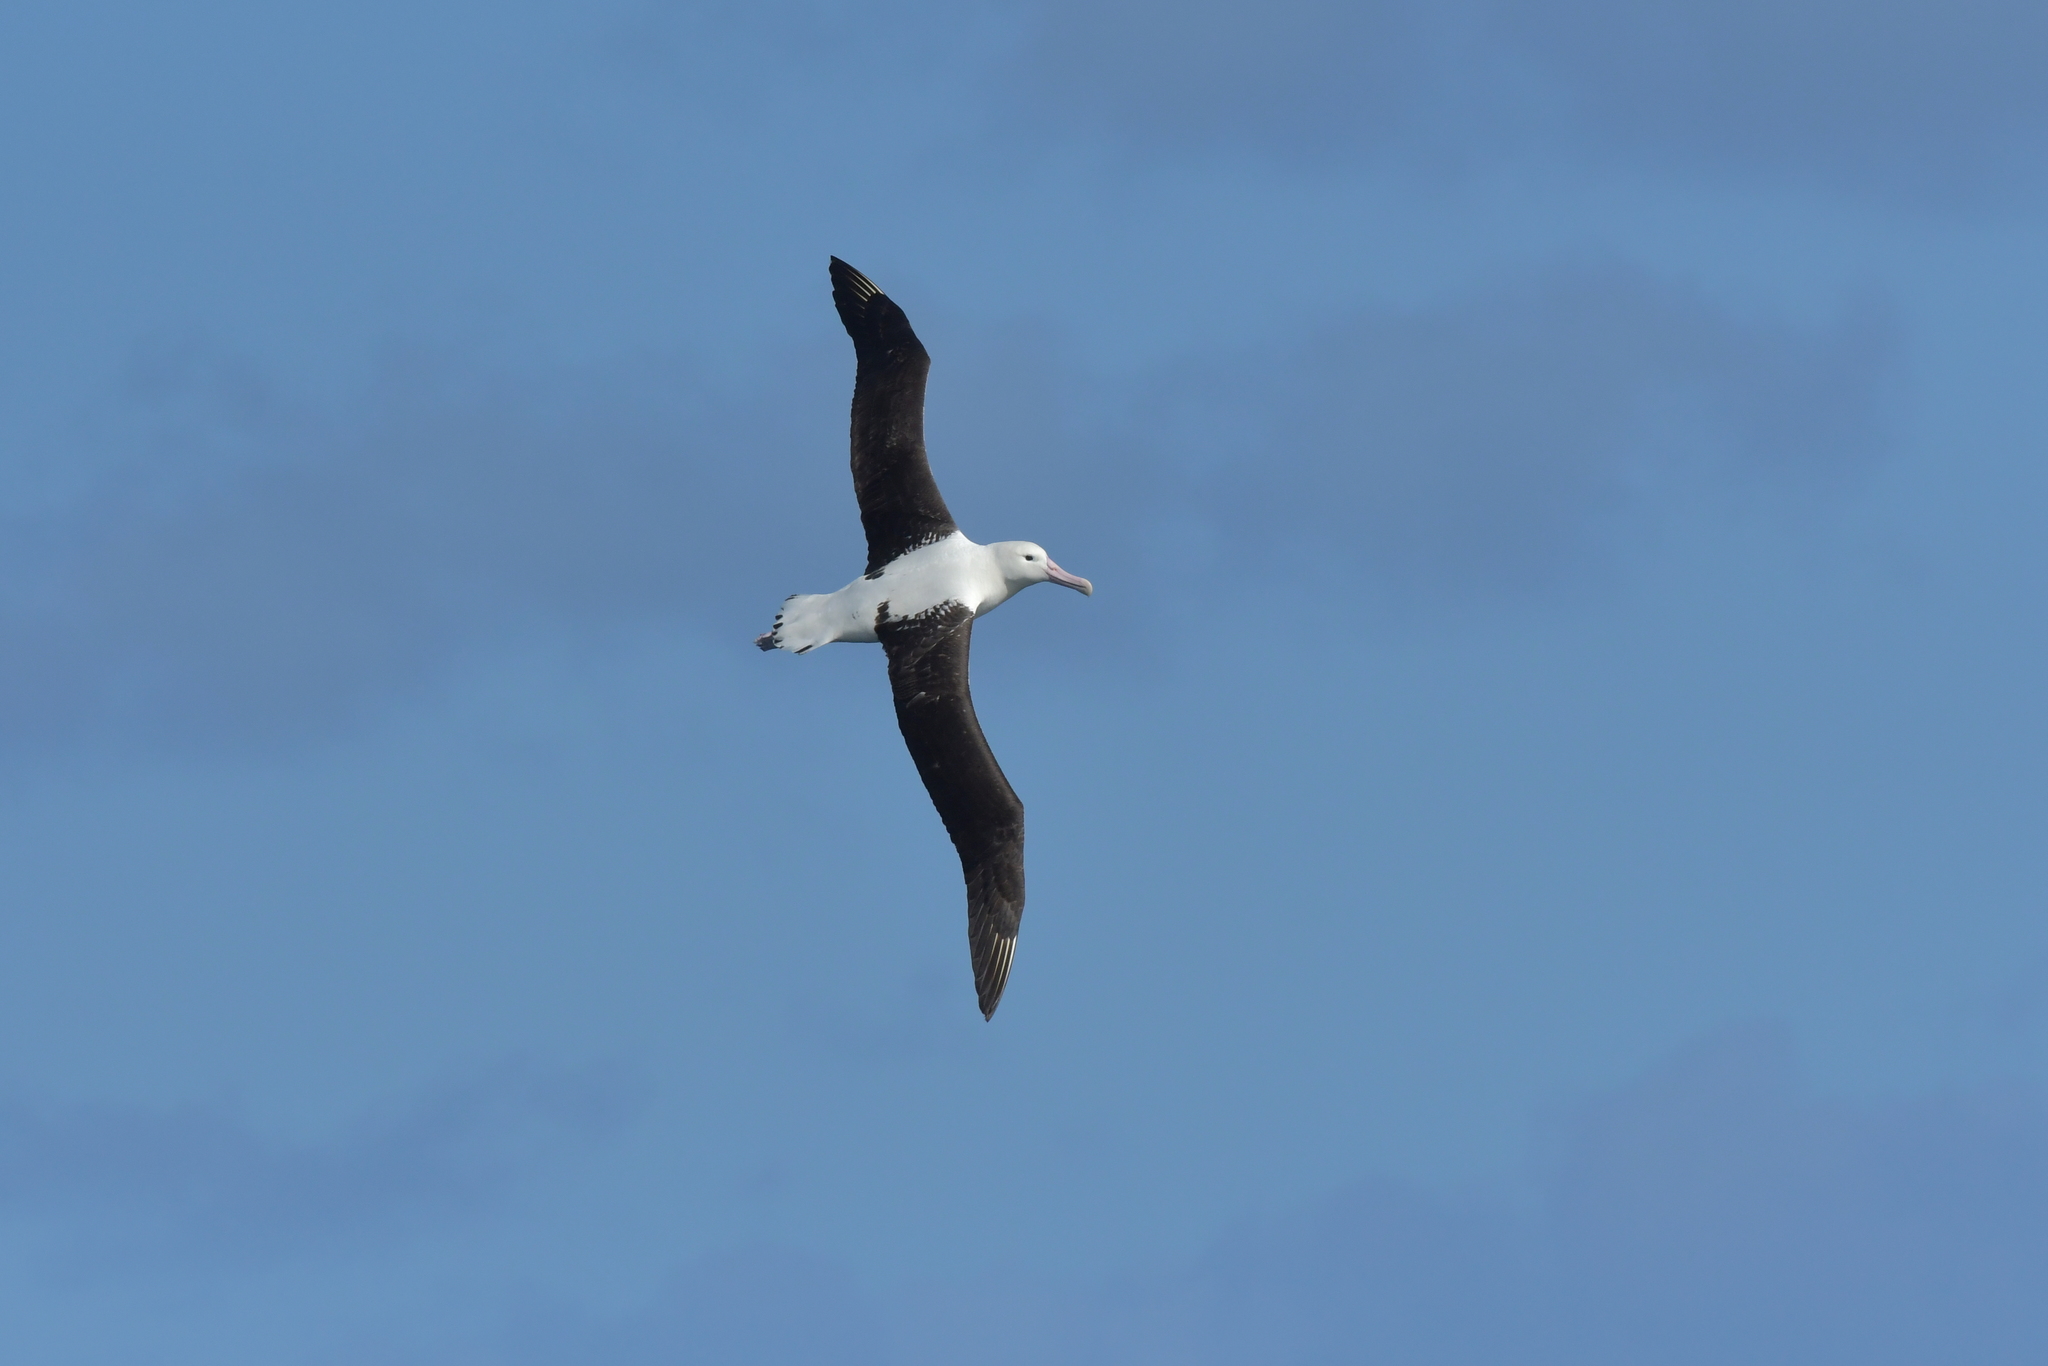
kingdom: Animalia
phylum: Chordata
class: Aves
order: Procellariiformes
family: Diomedeidae
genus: Diomedea
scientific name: Diomedea sanfordi
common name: Northern royal albatross
